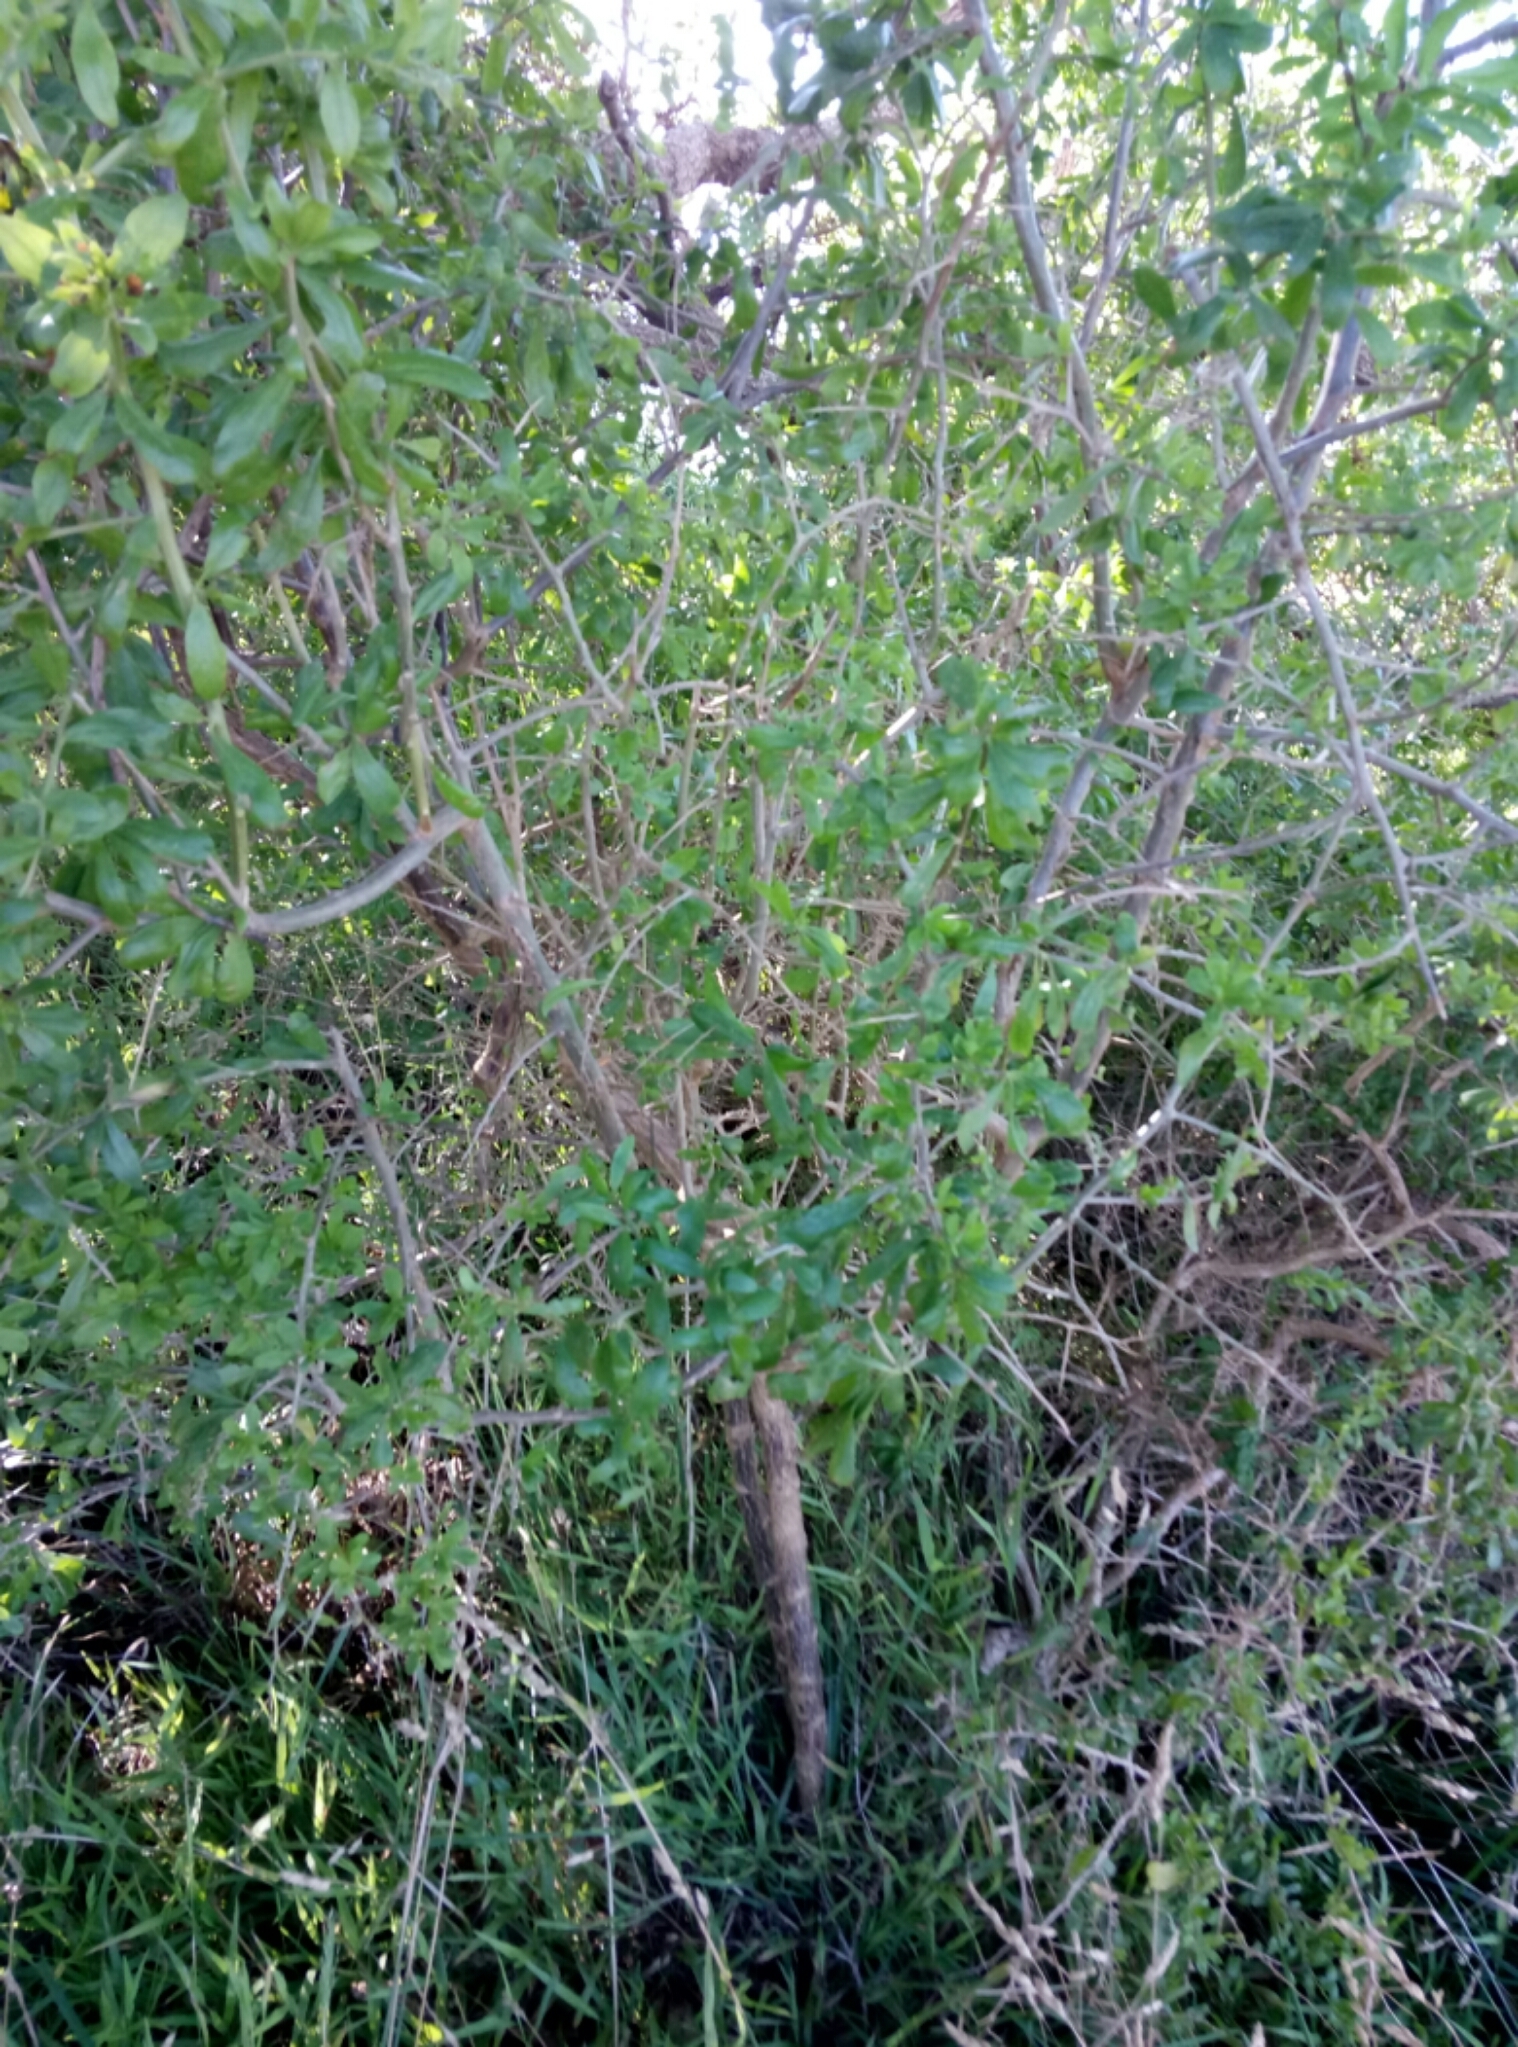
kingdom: Plantae
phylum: Tracheophyta
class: Magnoliopsida
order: Solanales
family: Solanaceae
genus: Lycium
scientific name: Lycium ferocissimum
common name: African boxthorn
